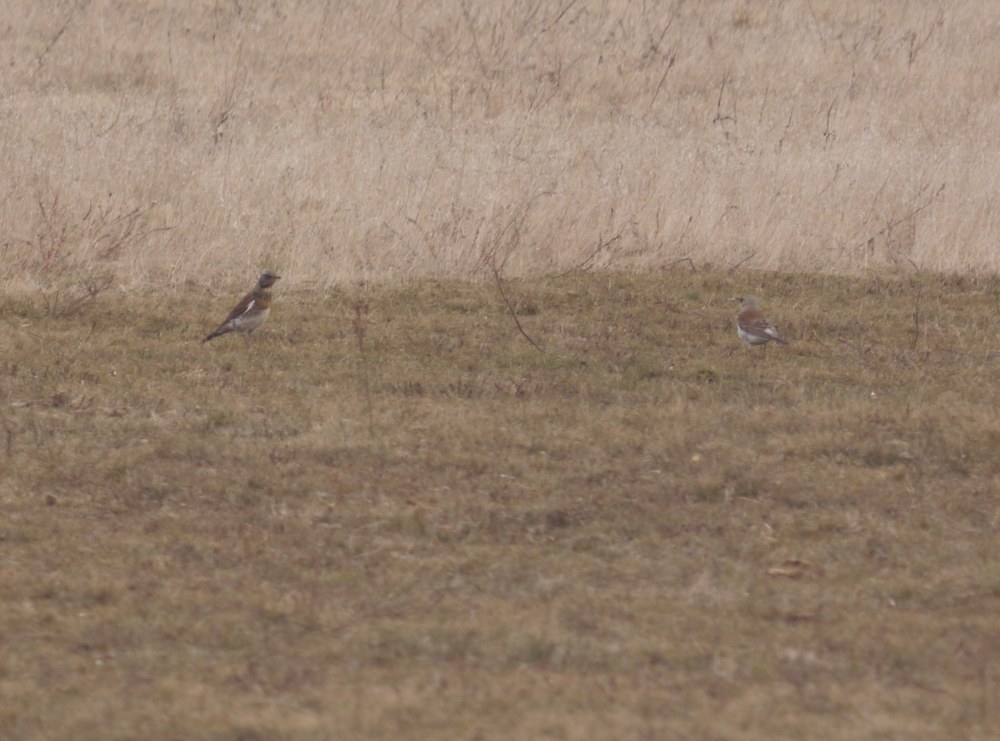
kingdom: Animalia
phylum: Chordata
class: Aves
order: Passeriformes
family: Turdidae
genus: Turdus
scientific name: Turdus pilaris
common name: Fieldfare
